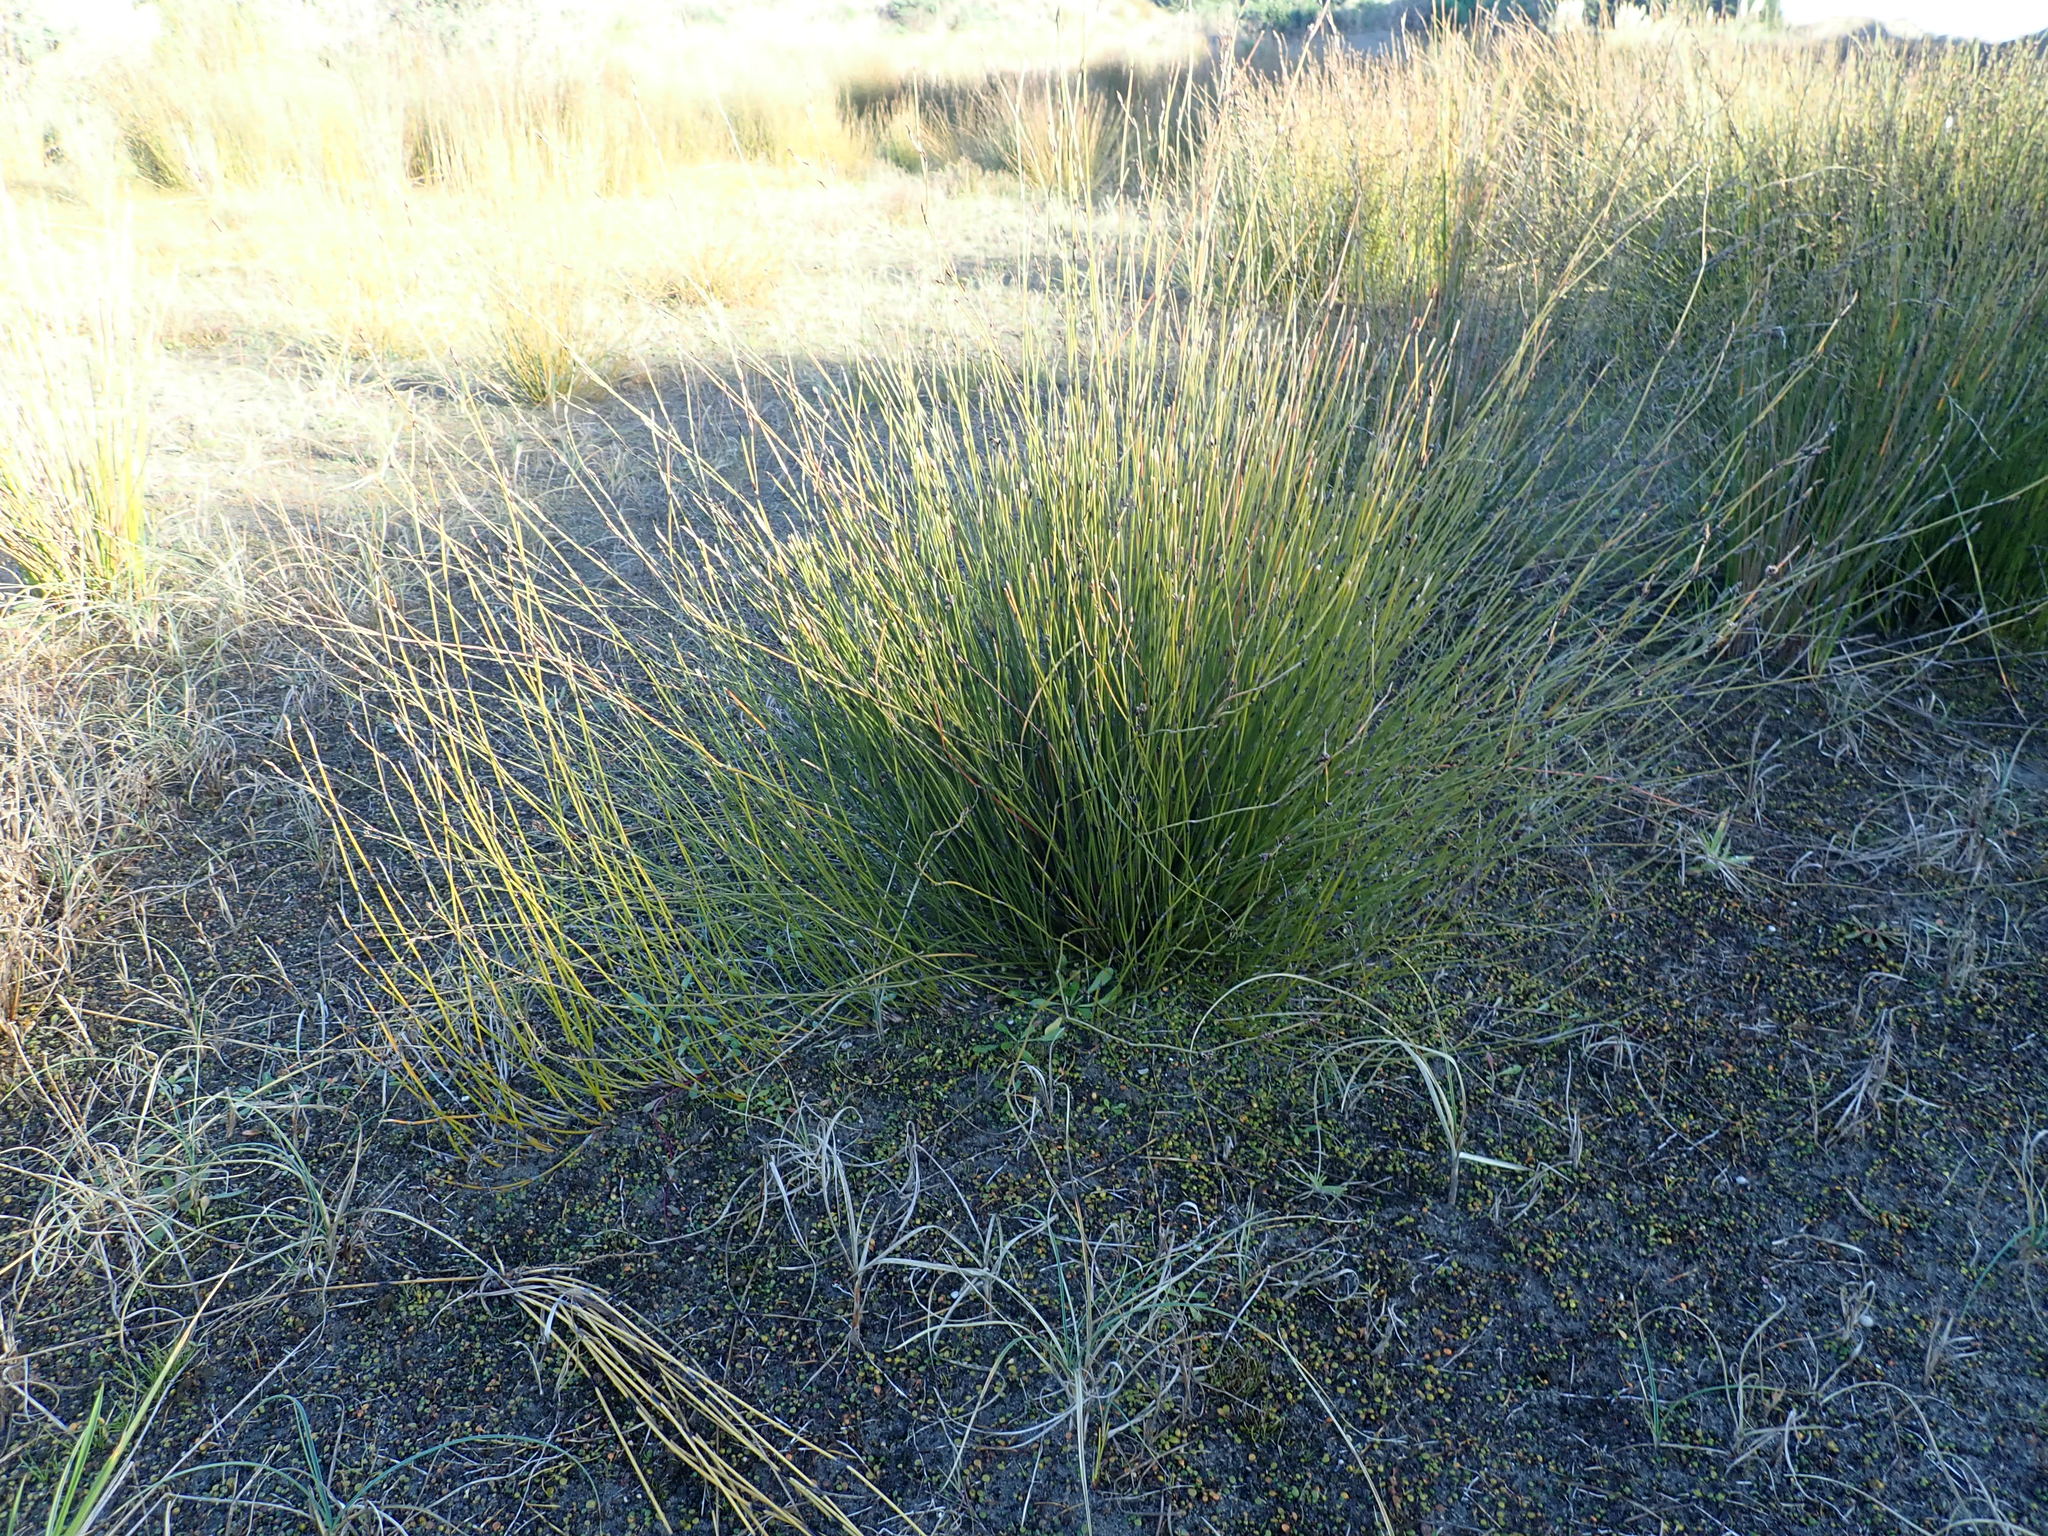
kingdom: Plantae
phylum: Tracheophyta
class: Liliopsida
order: Poales
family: Restionaceae
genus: Apodasmia
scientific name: Apodasmia similis
